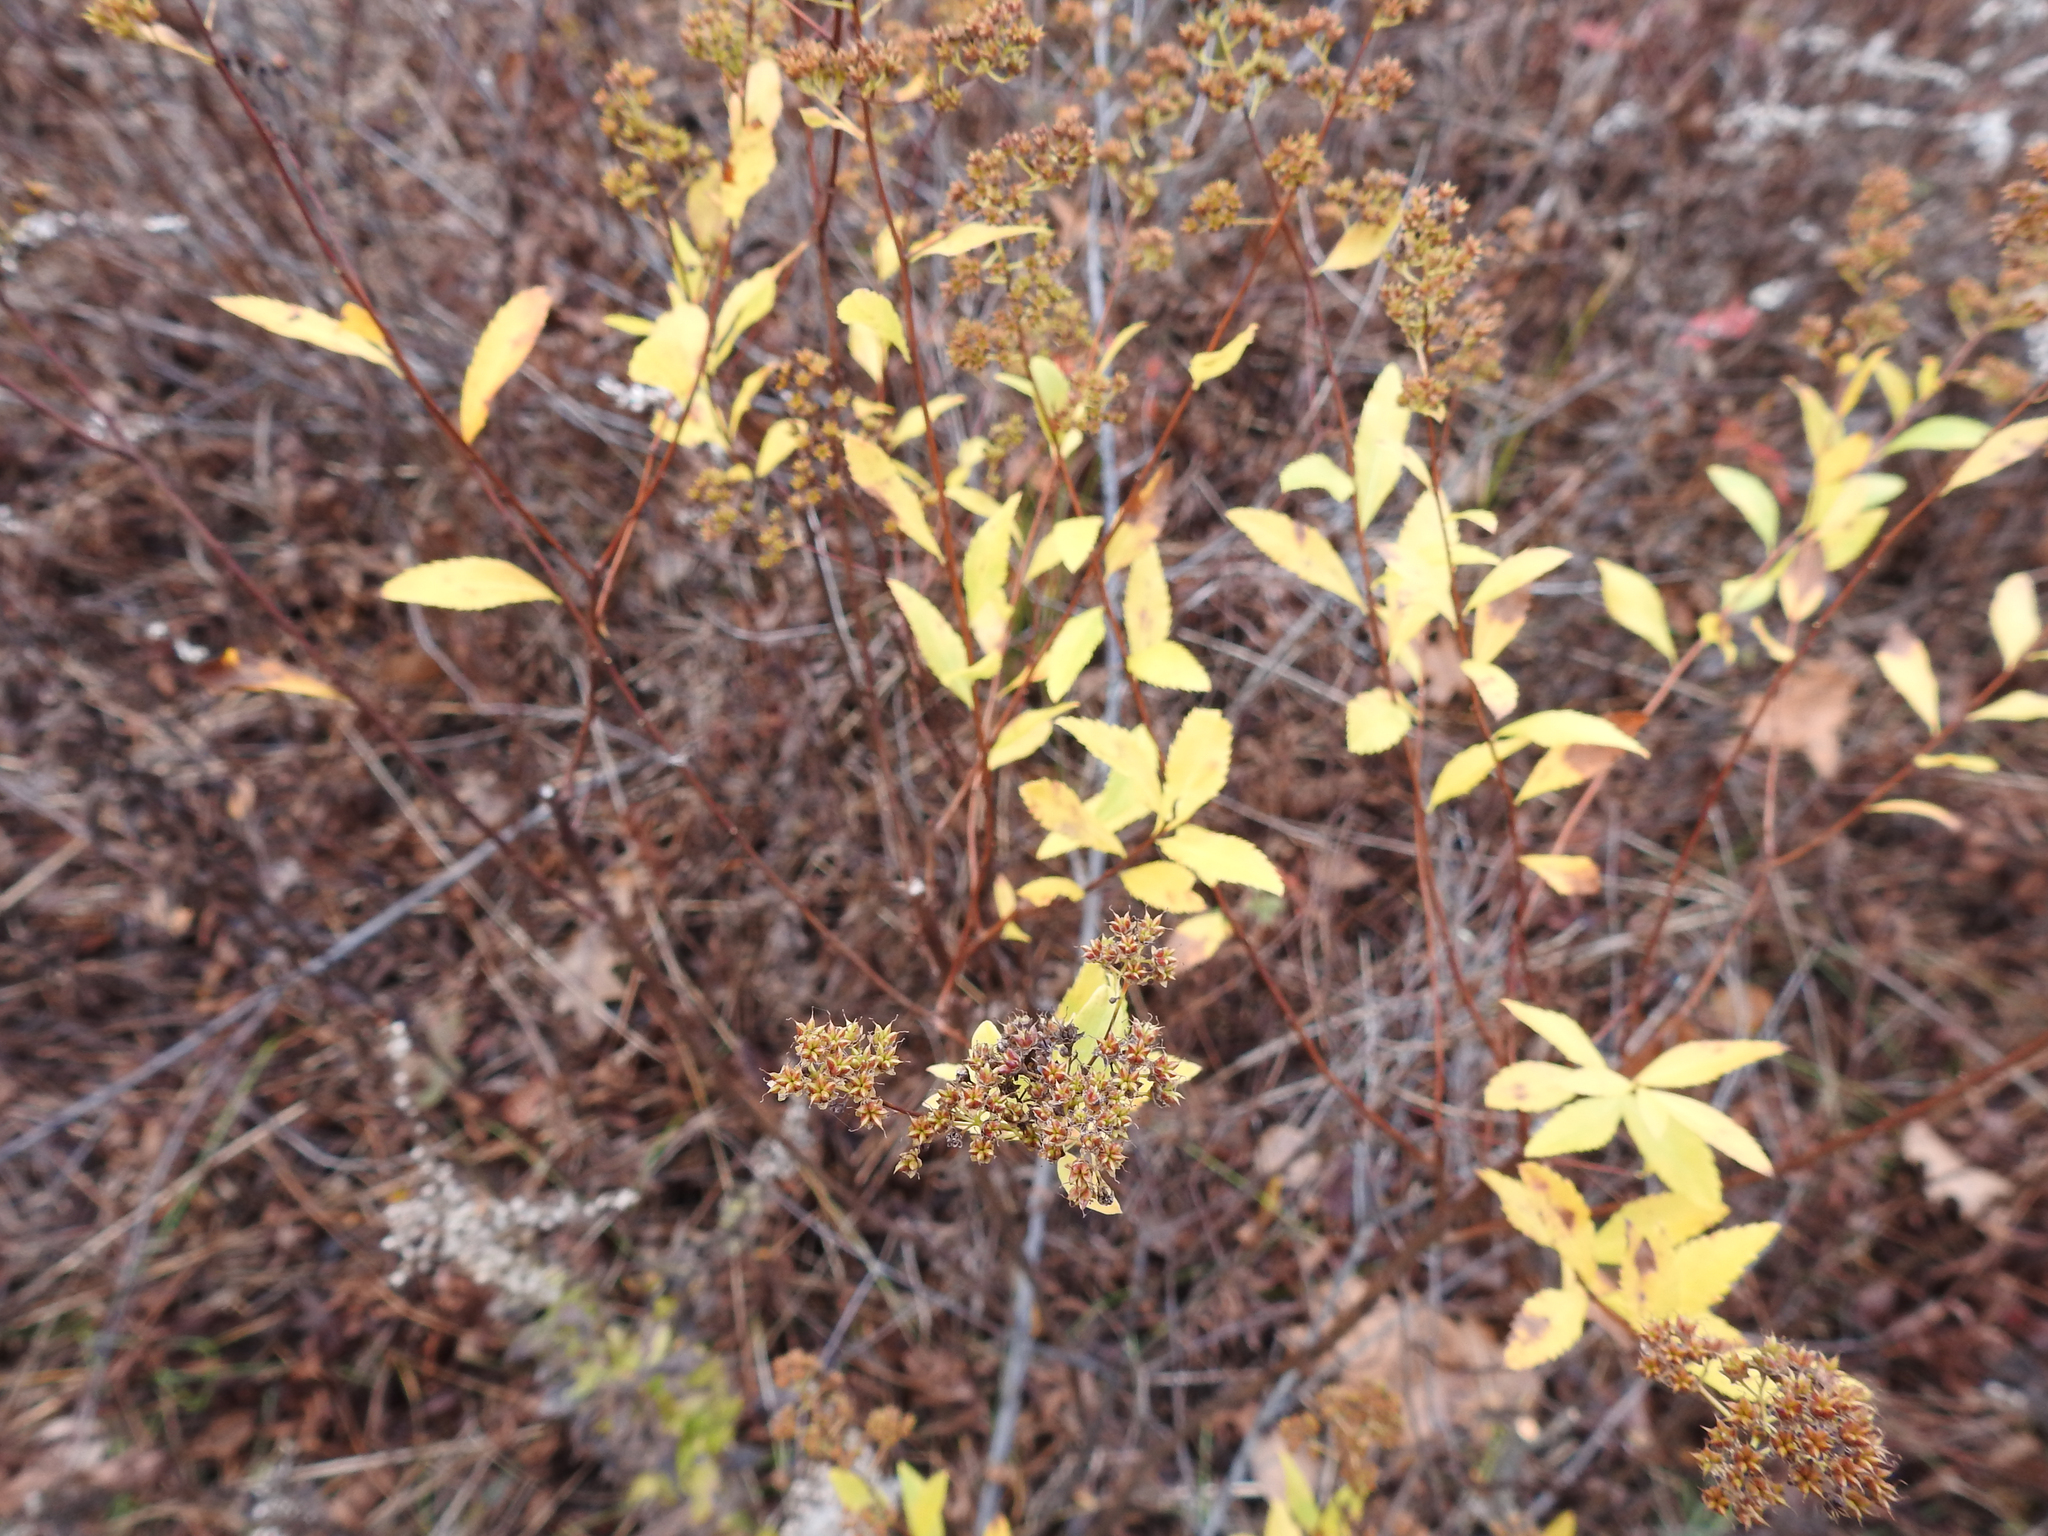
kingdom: Plantae
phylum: Tracheophyta
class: Magnoliopsida
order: Rosales
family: Rosaceae
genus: Spiraea
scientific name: Spiraea alba
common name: Pale bridewort
